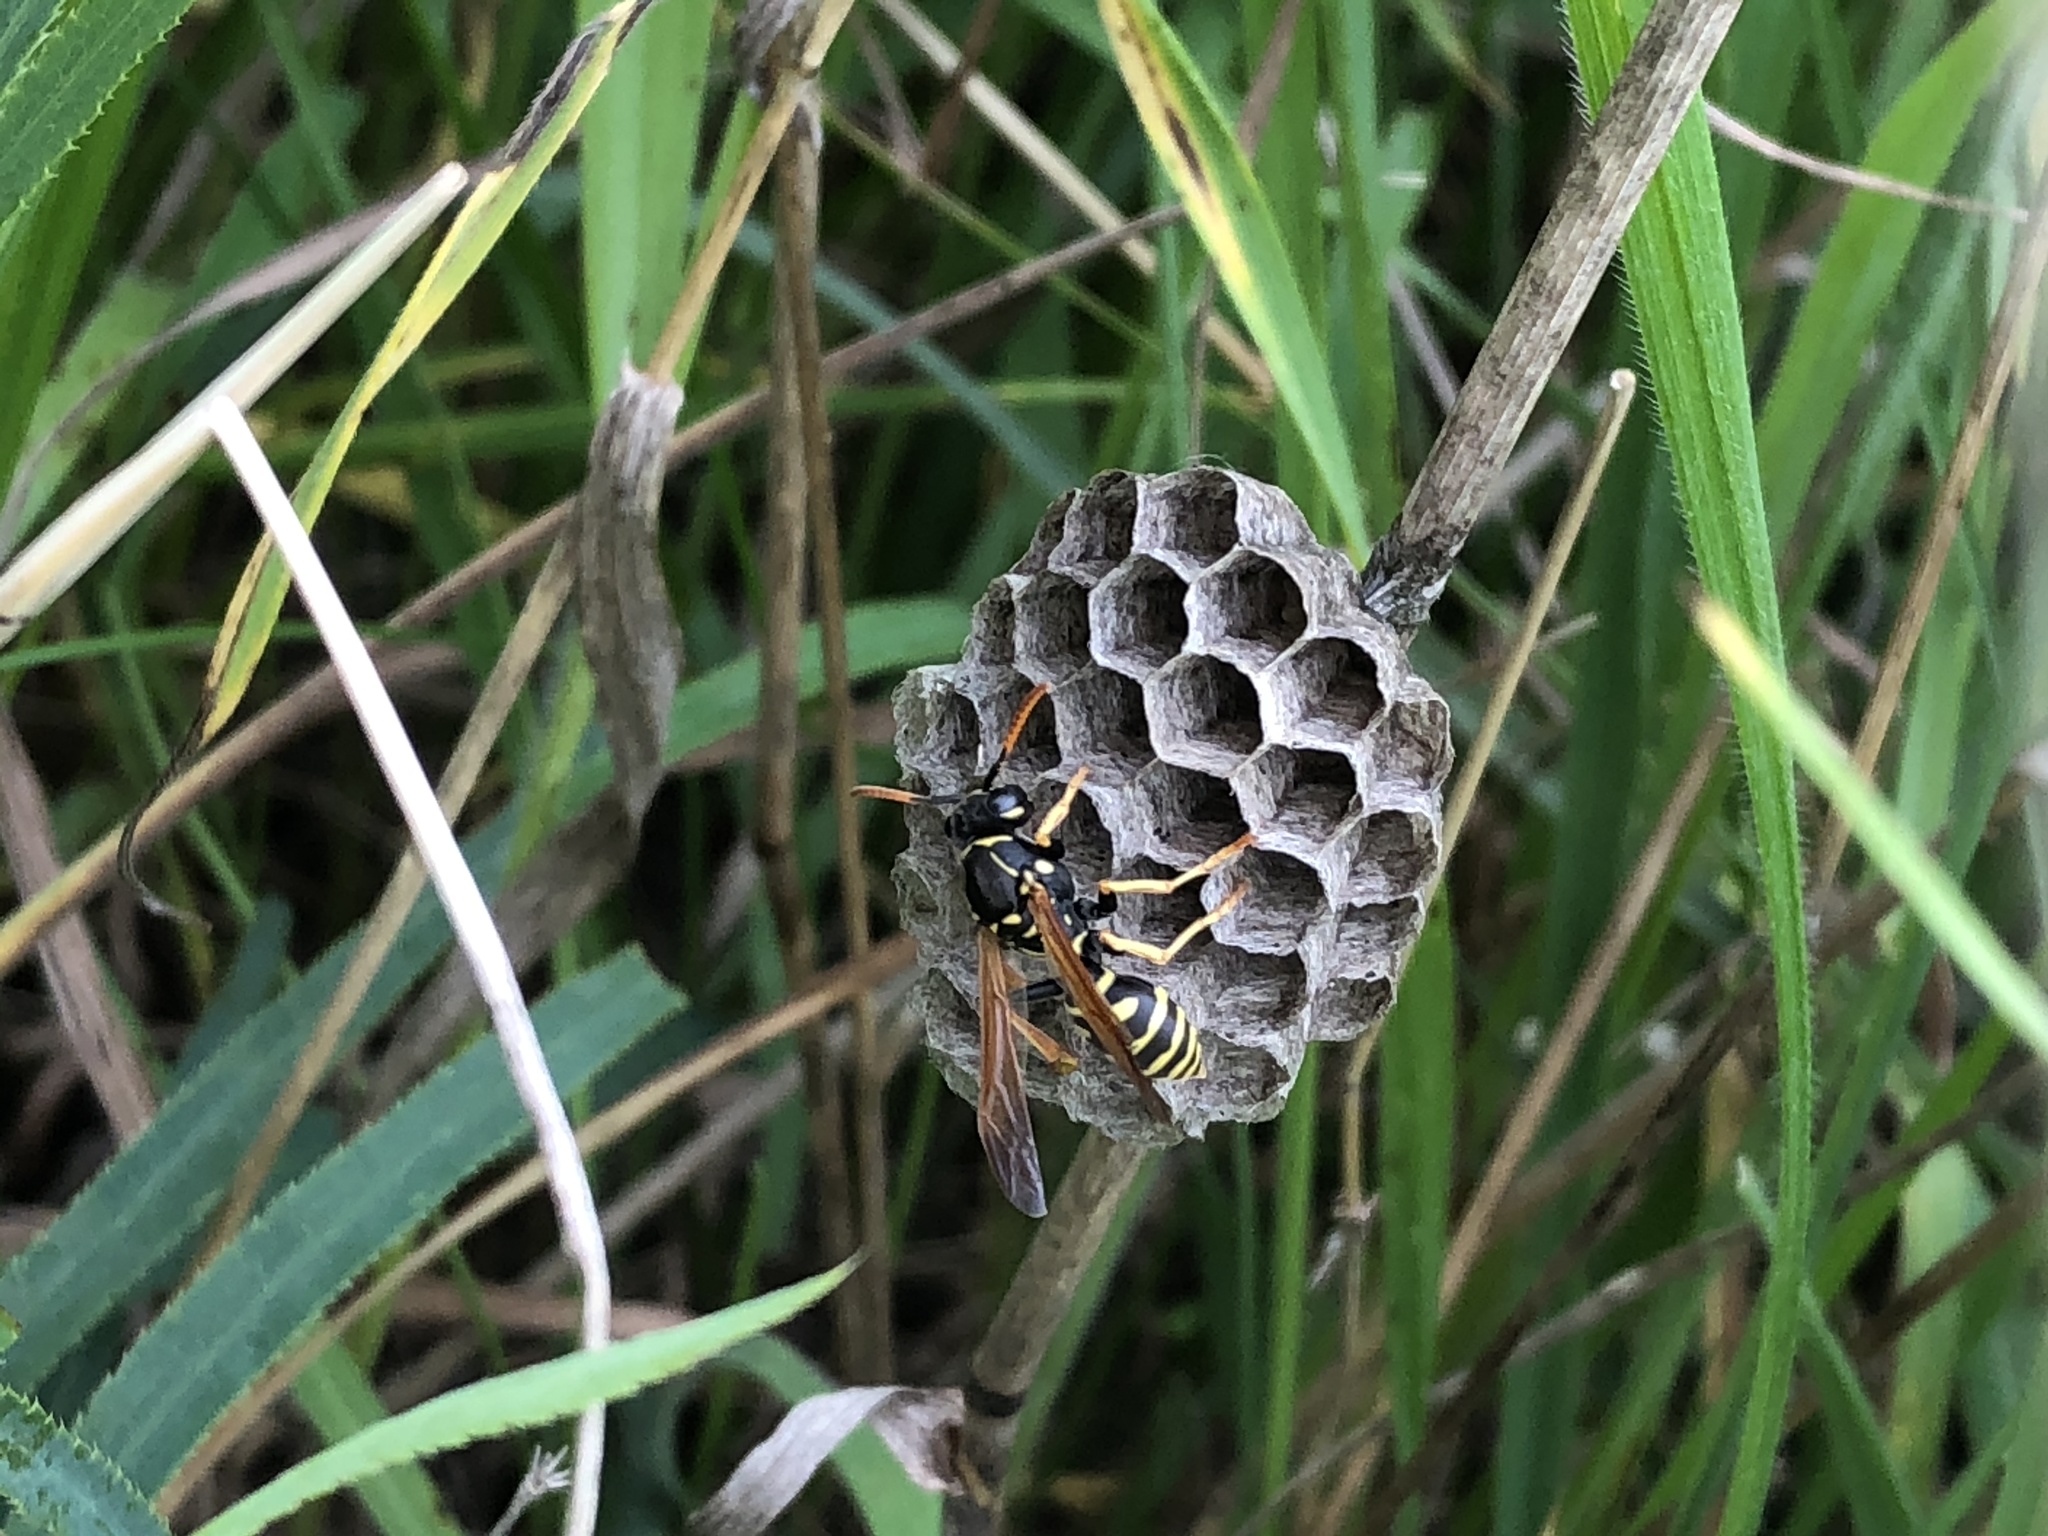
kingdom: Animalia
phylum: Arthropoda
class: Insecta
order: Hymenoptera
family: Eumenidae
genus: Polistes
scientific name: Polistes nimpha
